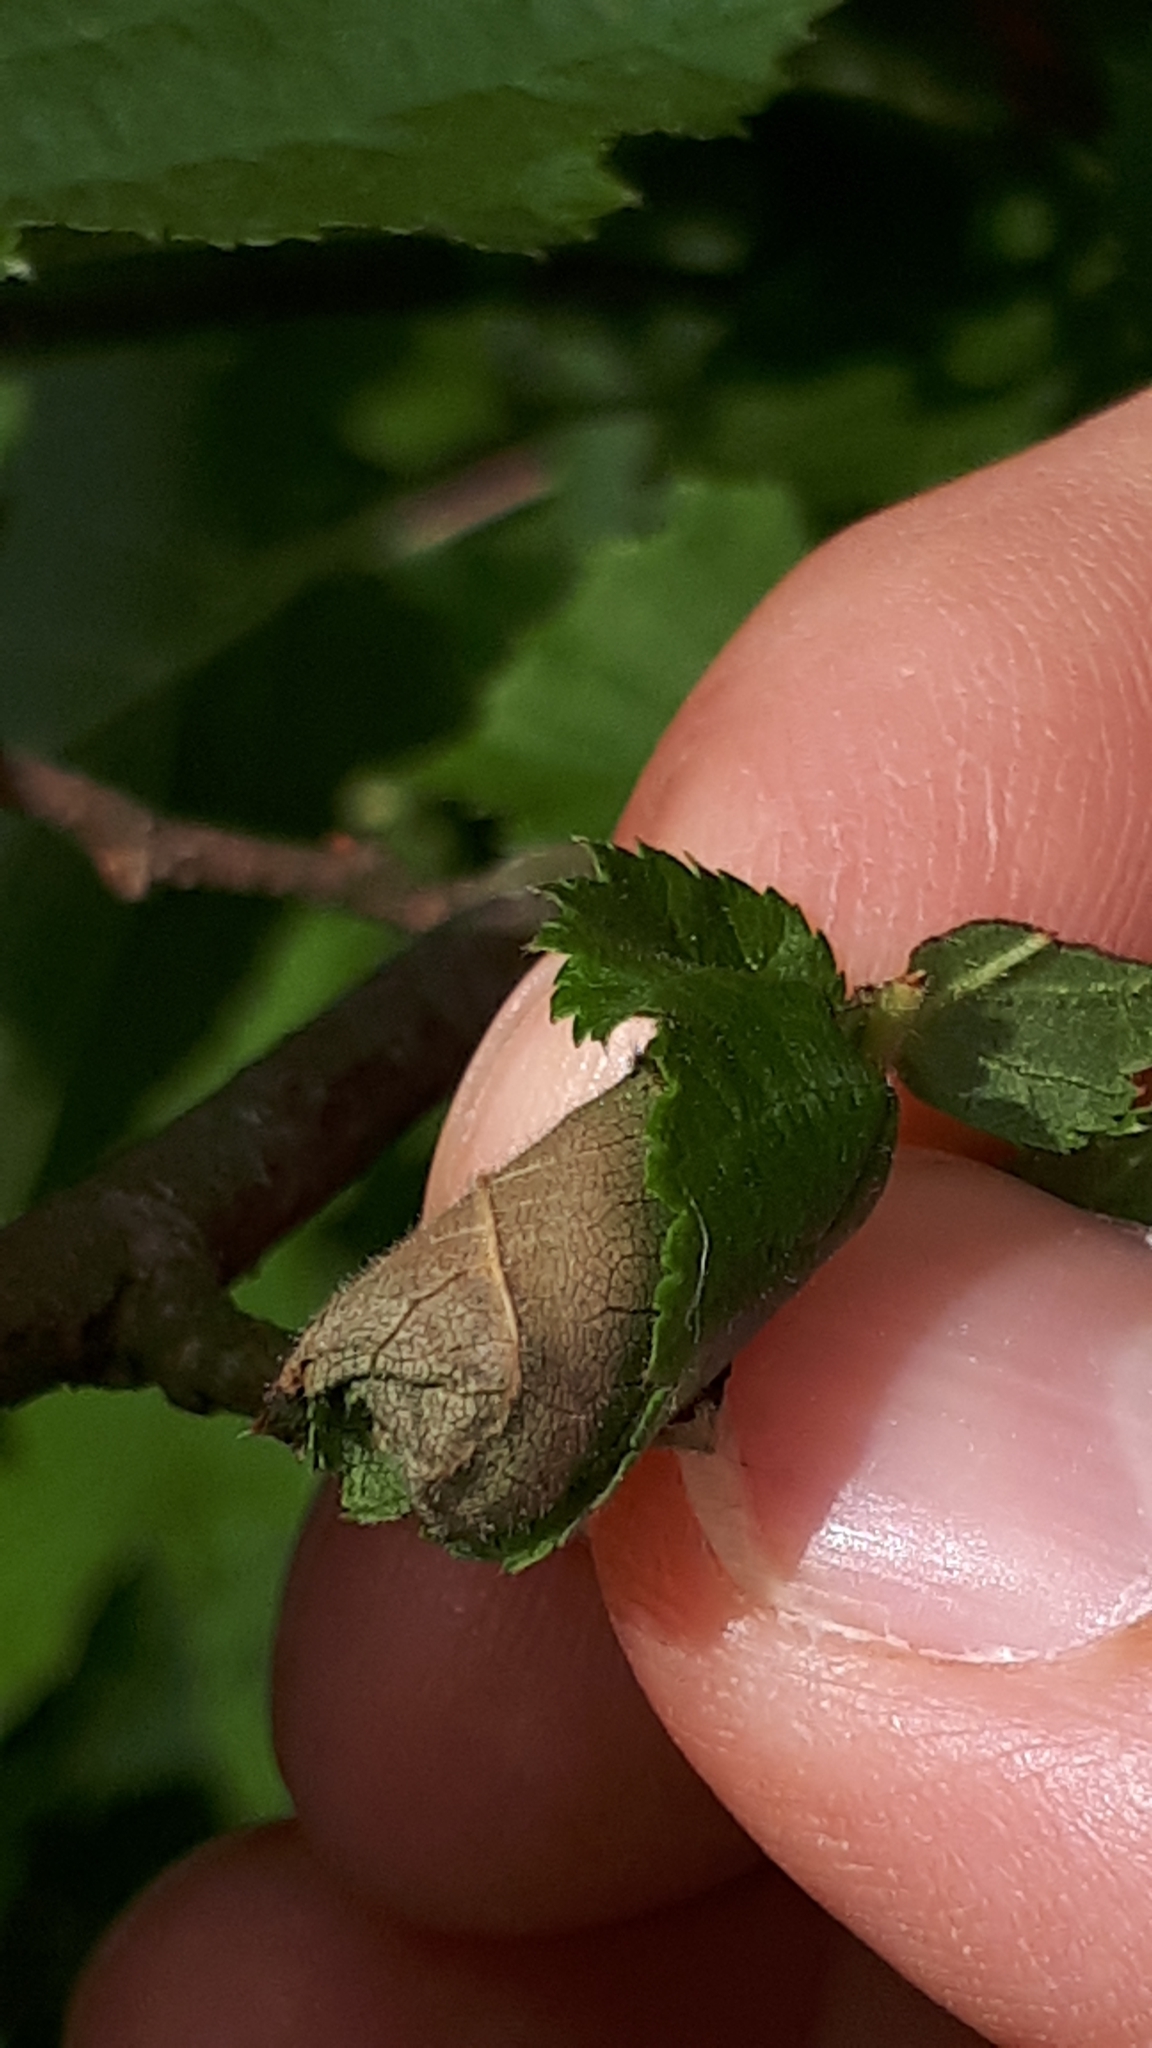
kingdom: Animalia
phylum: Arthropoda
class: Insecta
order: Coleoptera
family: Attelabidae
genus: Apoderus
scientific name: Apoderus coryli
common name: Hazel leaf roller
